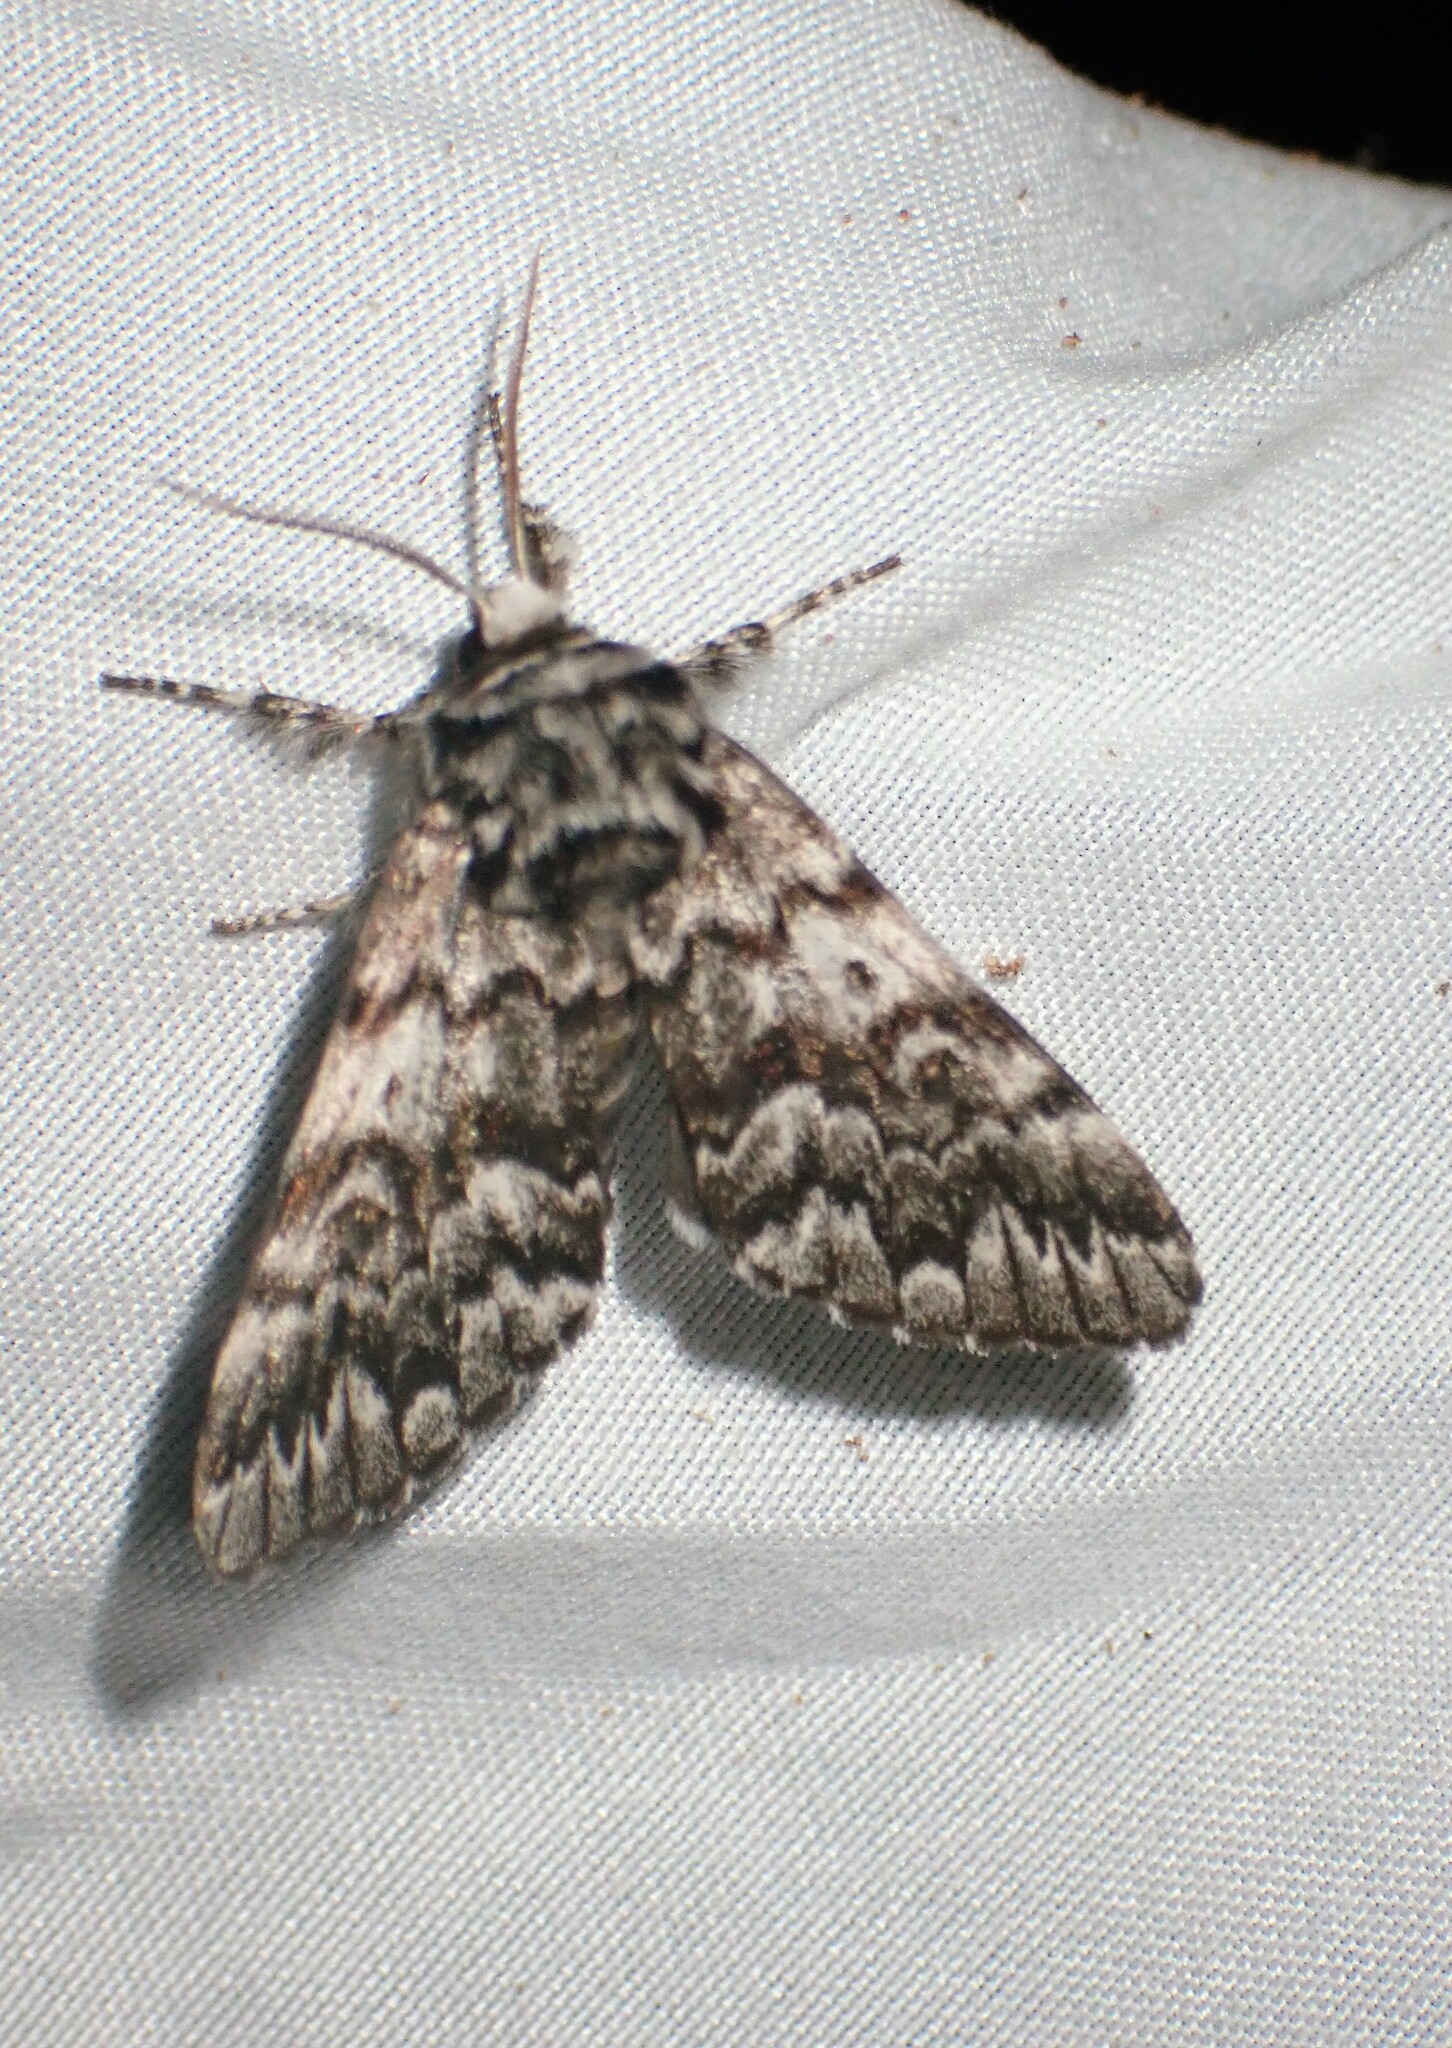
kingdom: Animalia
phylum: Arthropoda
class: Insecta
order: Lepidoptera
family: Noctuidae
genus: Panthea
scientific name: Panthea acronyctoides
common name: Black zigzag moth
